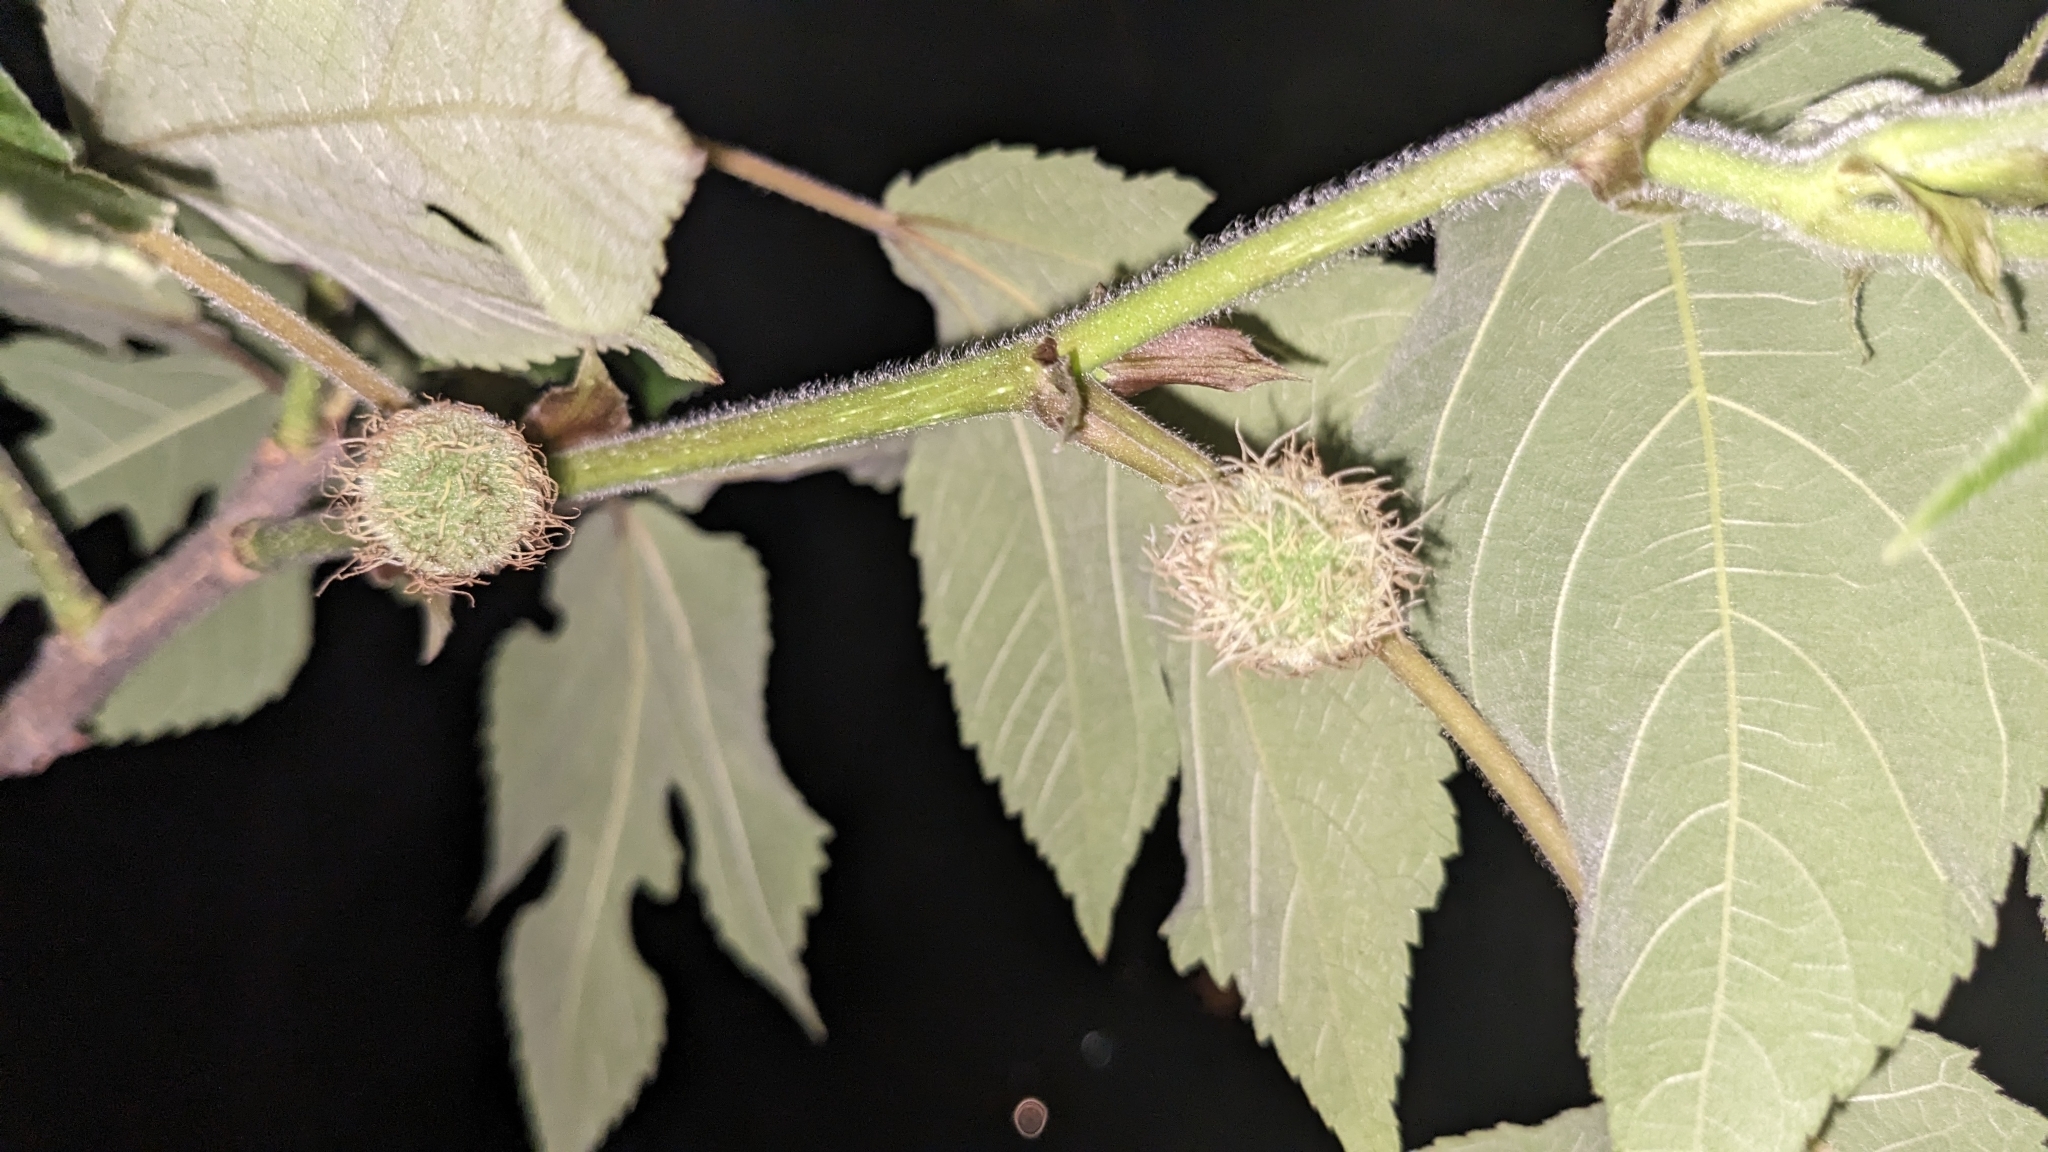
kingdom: Plantae
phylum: Tracheophyta
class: Magnoliopsida
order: Rosales
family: Moraceae
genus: Broussonetia
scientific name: Broussonetia papyrifera
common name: Paper mulberry
